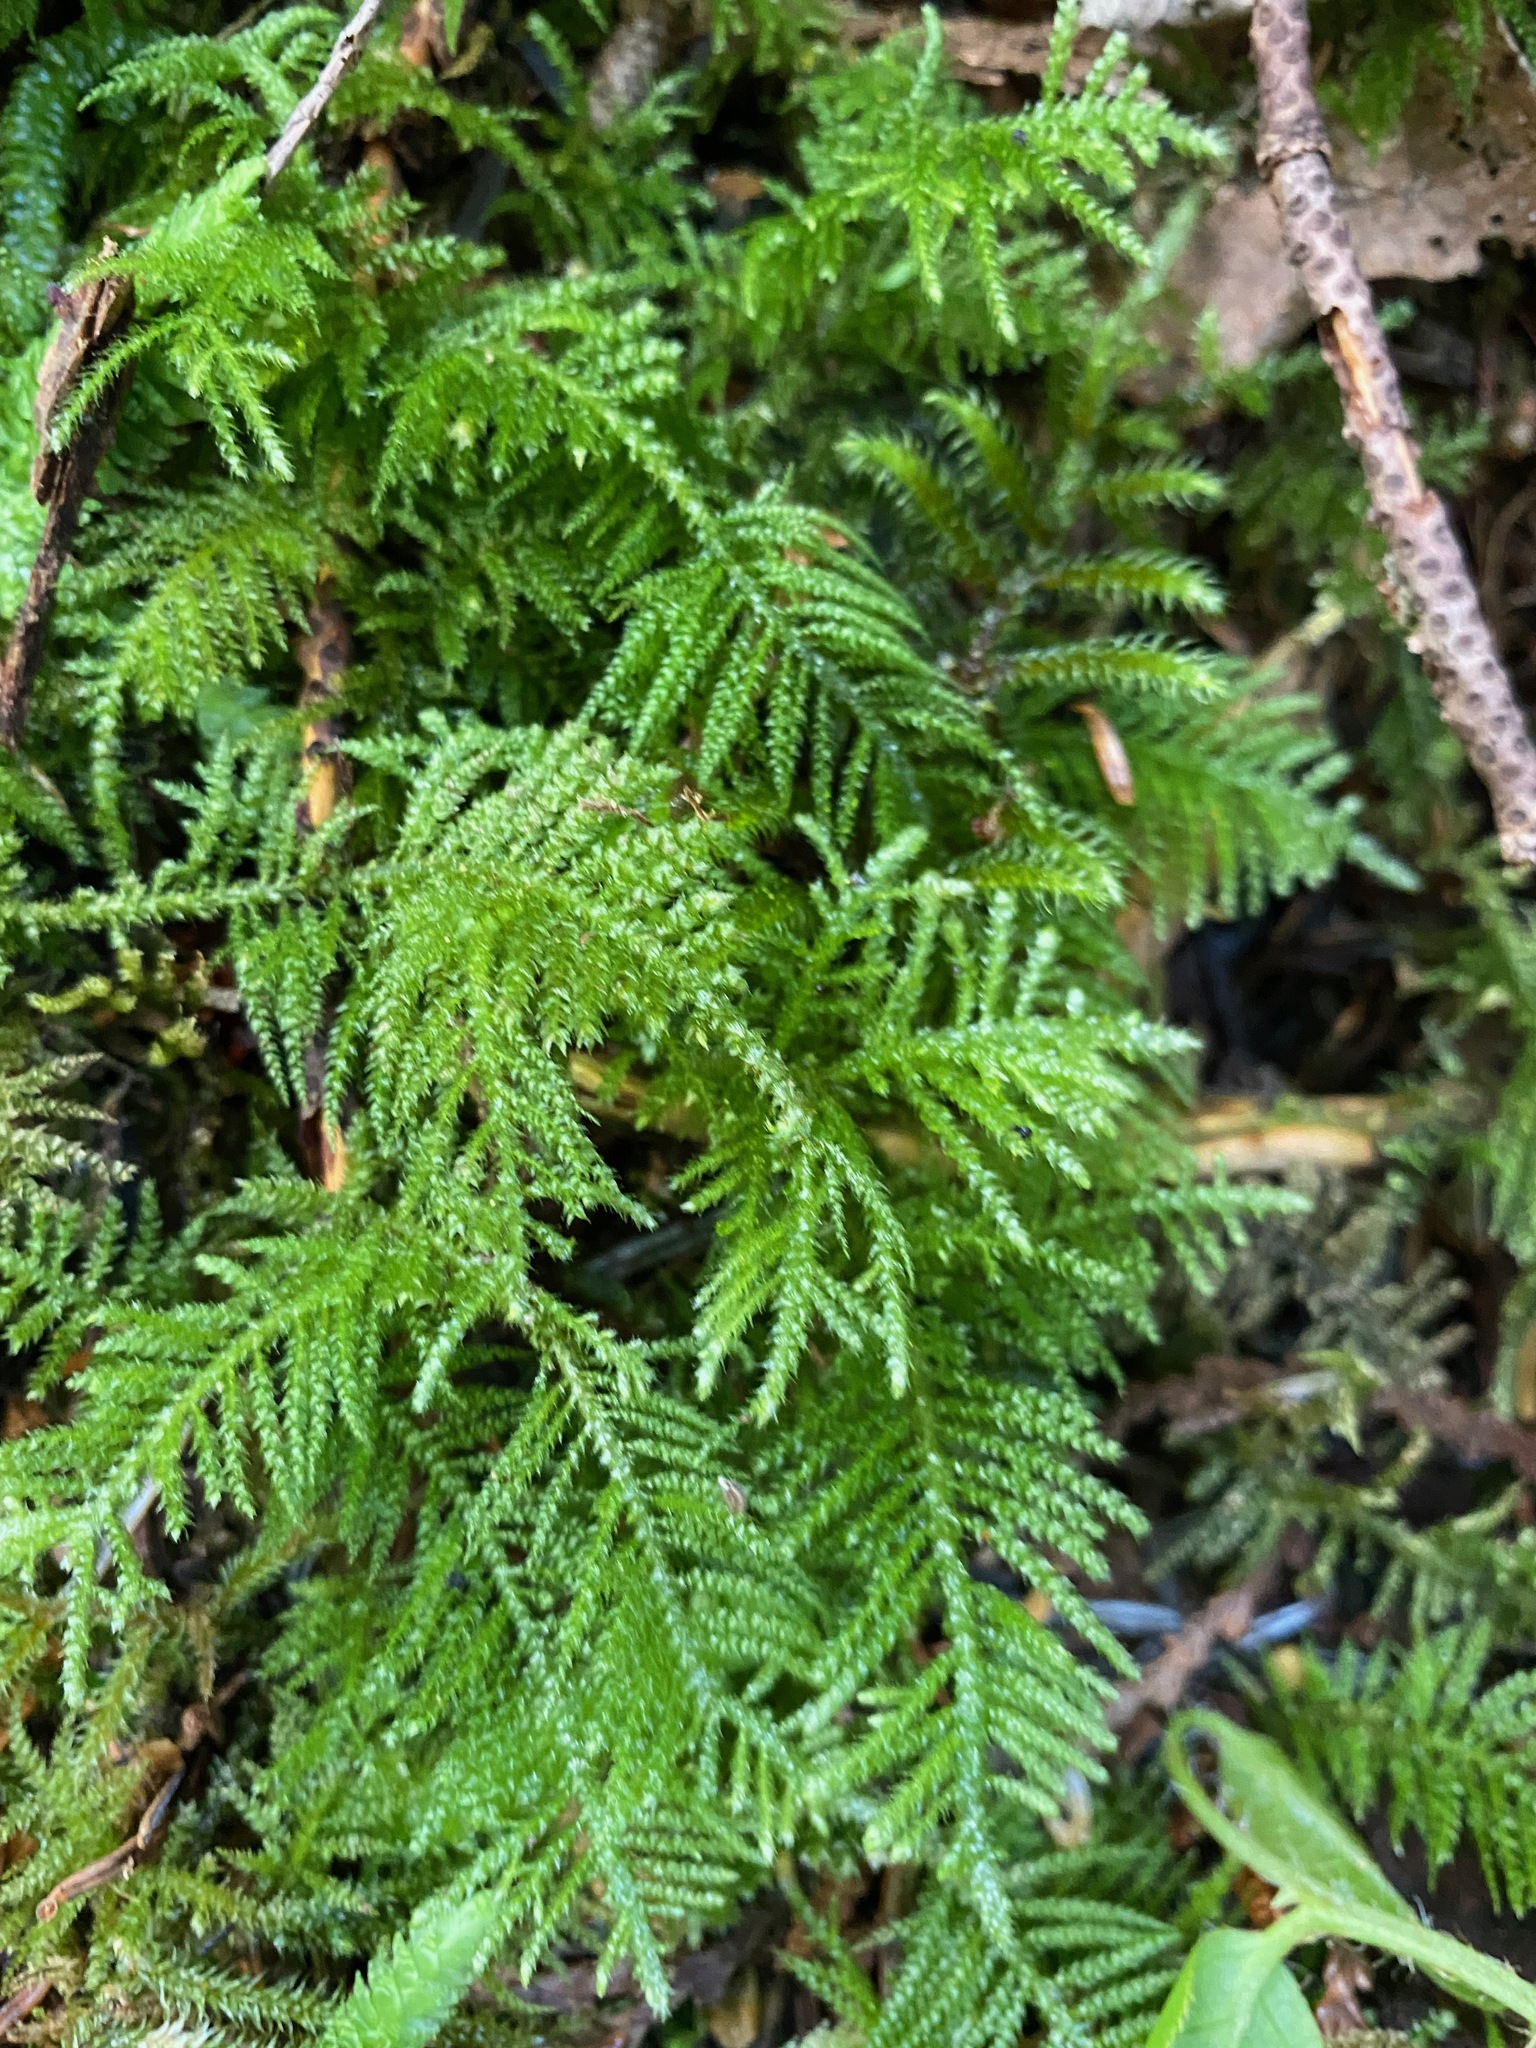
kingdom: Plantae
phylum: Bryophyta
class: Bryopsida
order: Hypnales
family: Brachytheciaceae
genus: Kindbergia
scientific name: Kindbergia oregana
